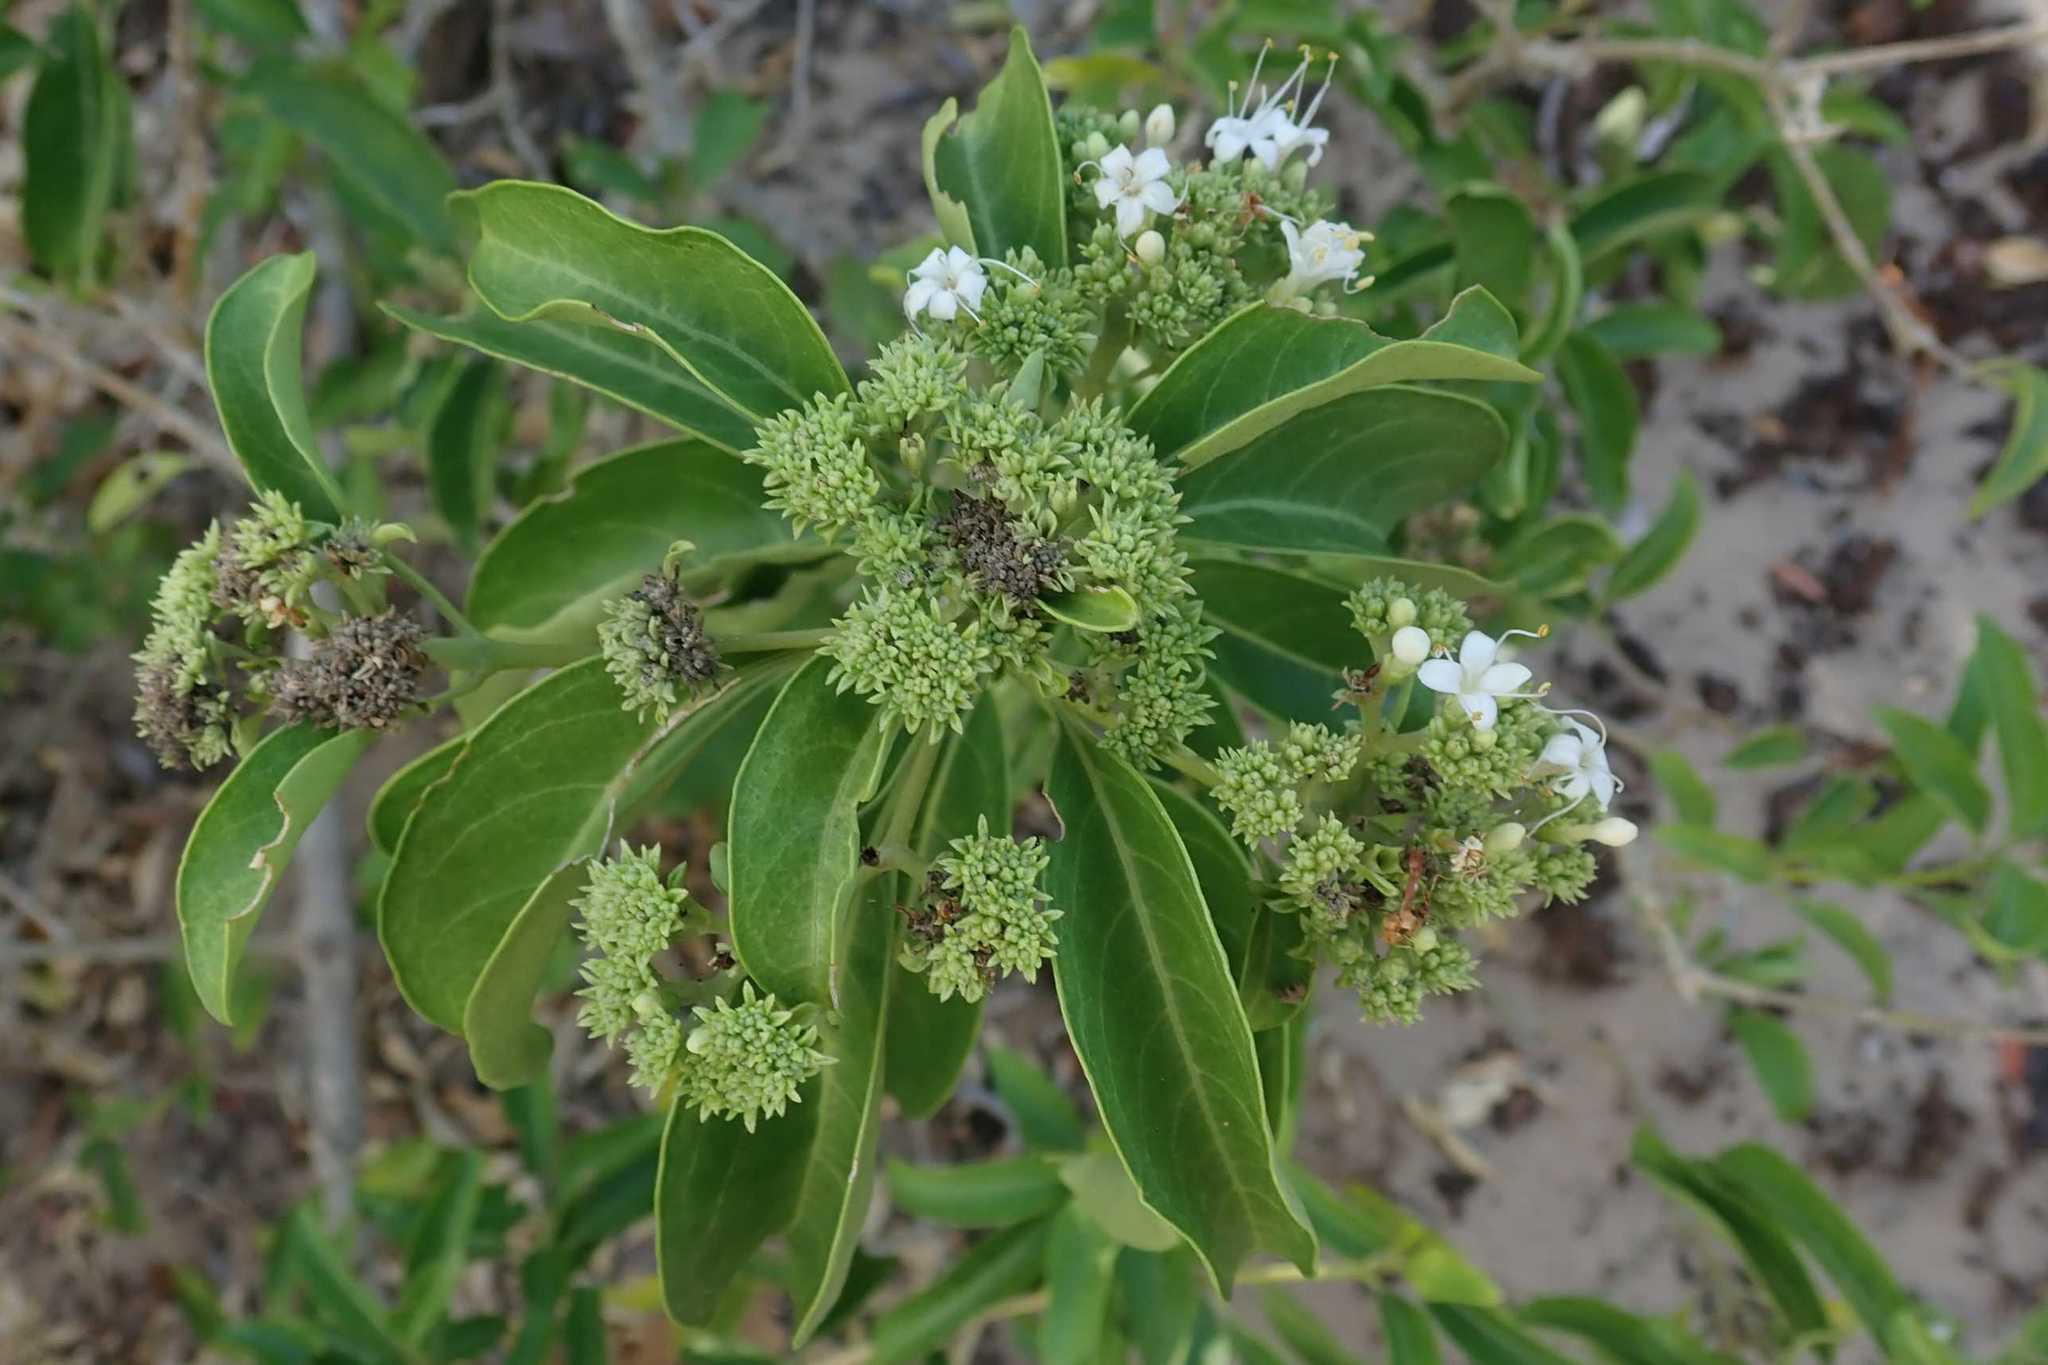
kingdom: Plantae
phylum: Tracheophyta
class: Magnoliopsida
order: Lamiales
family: Lamiaceae
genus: Volkameria
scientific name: Volkameria glabra
